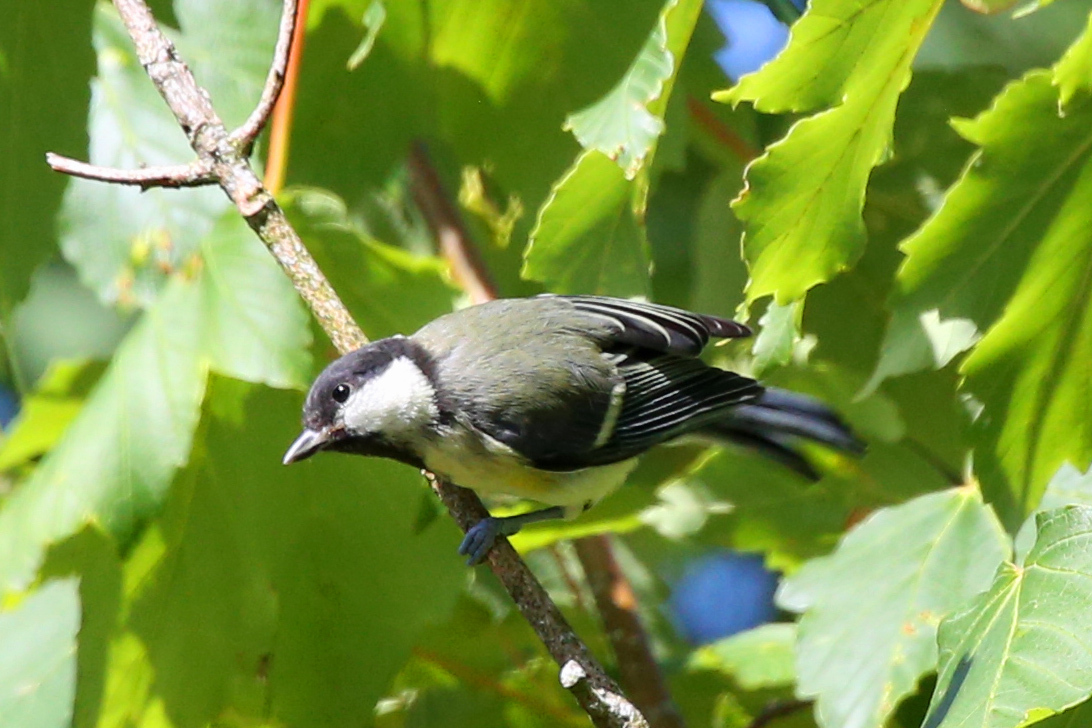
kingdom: Animalia
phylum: Chordata
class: Aves
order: Passeriformes
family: Paridae
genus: Parus
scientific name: Parus major
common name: Great tit
